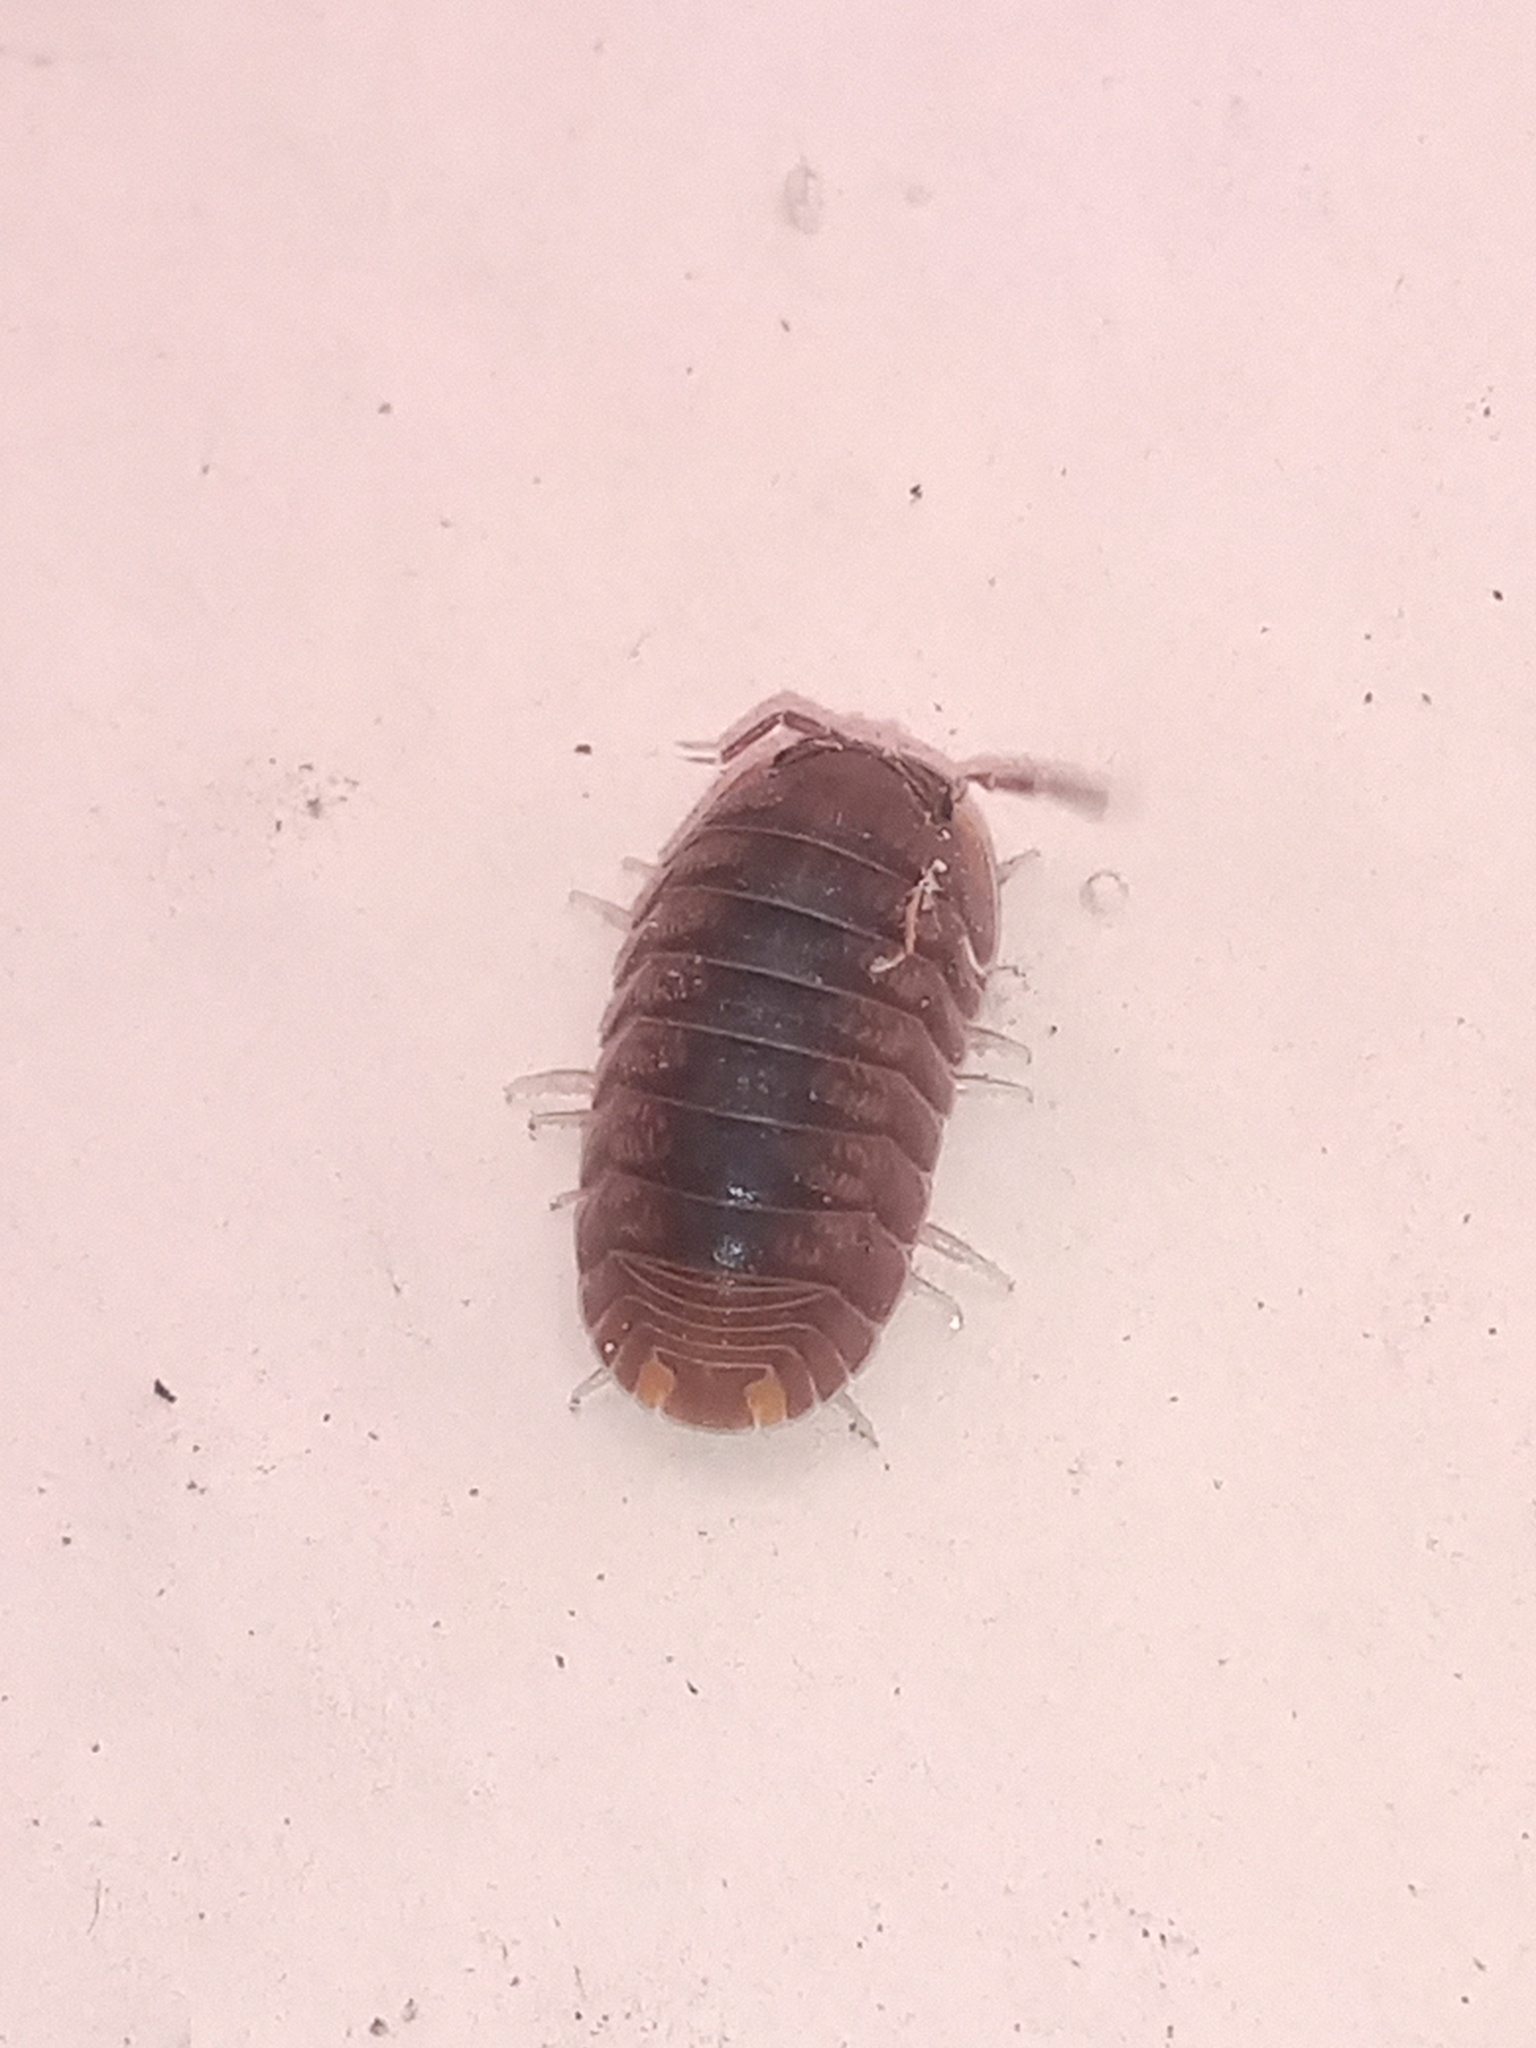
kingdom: Animalia
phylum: Arthropoda
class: Malacostraca
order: Isopoda
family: Armadillidae
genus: Cubaris
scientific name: Cubaris murina
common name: Pillbug
